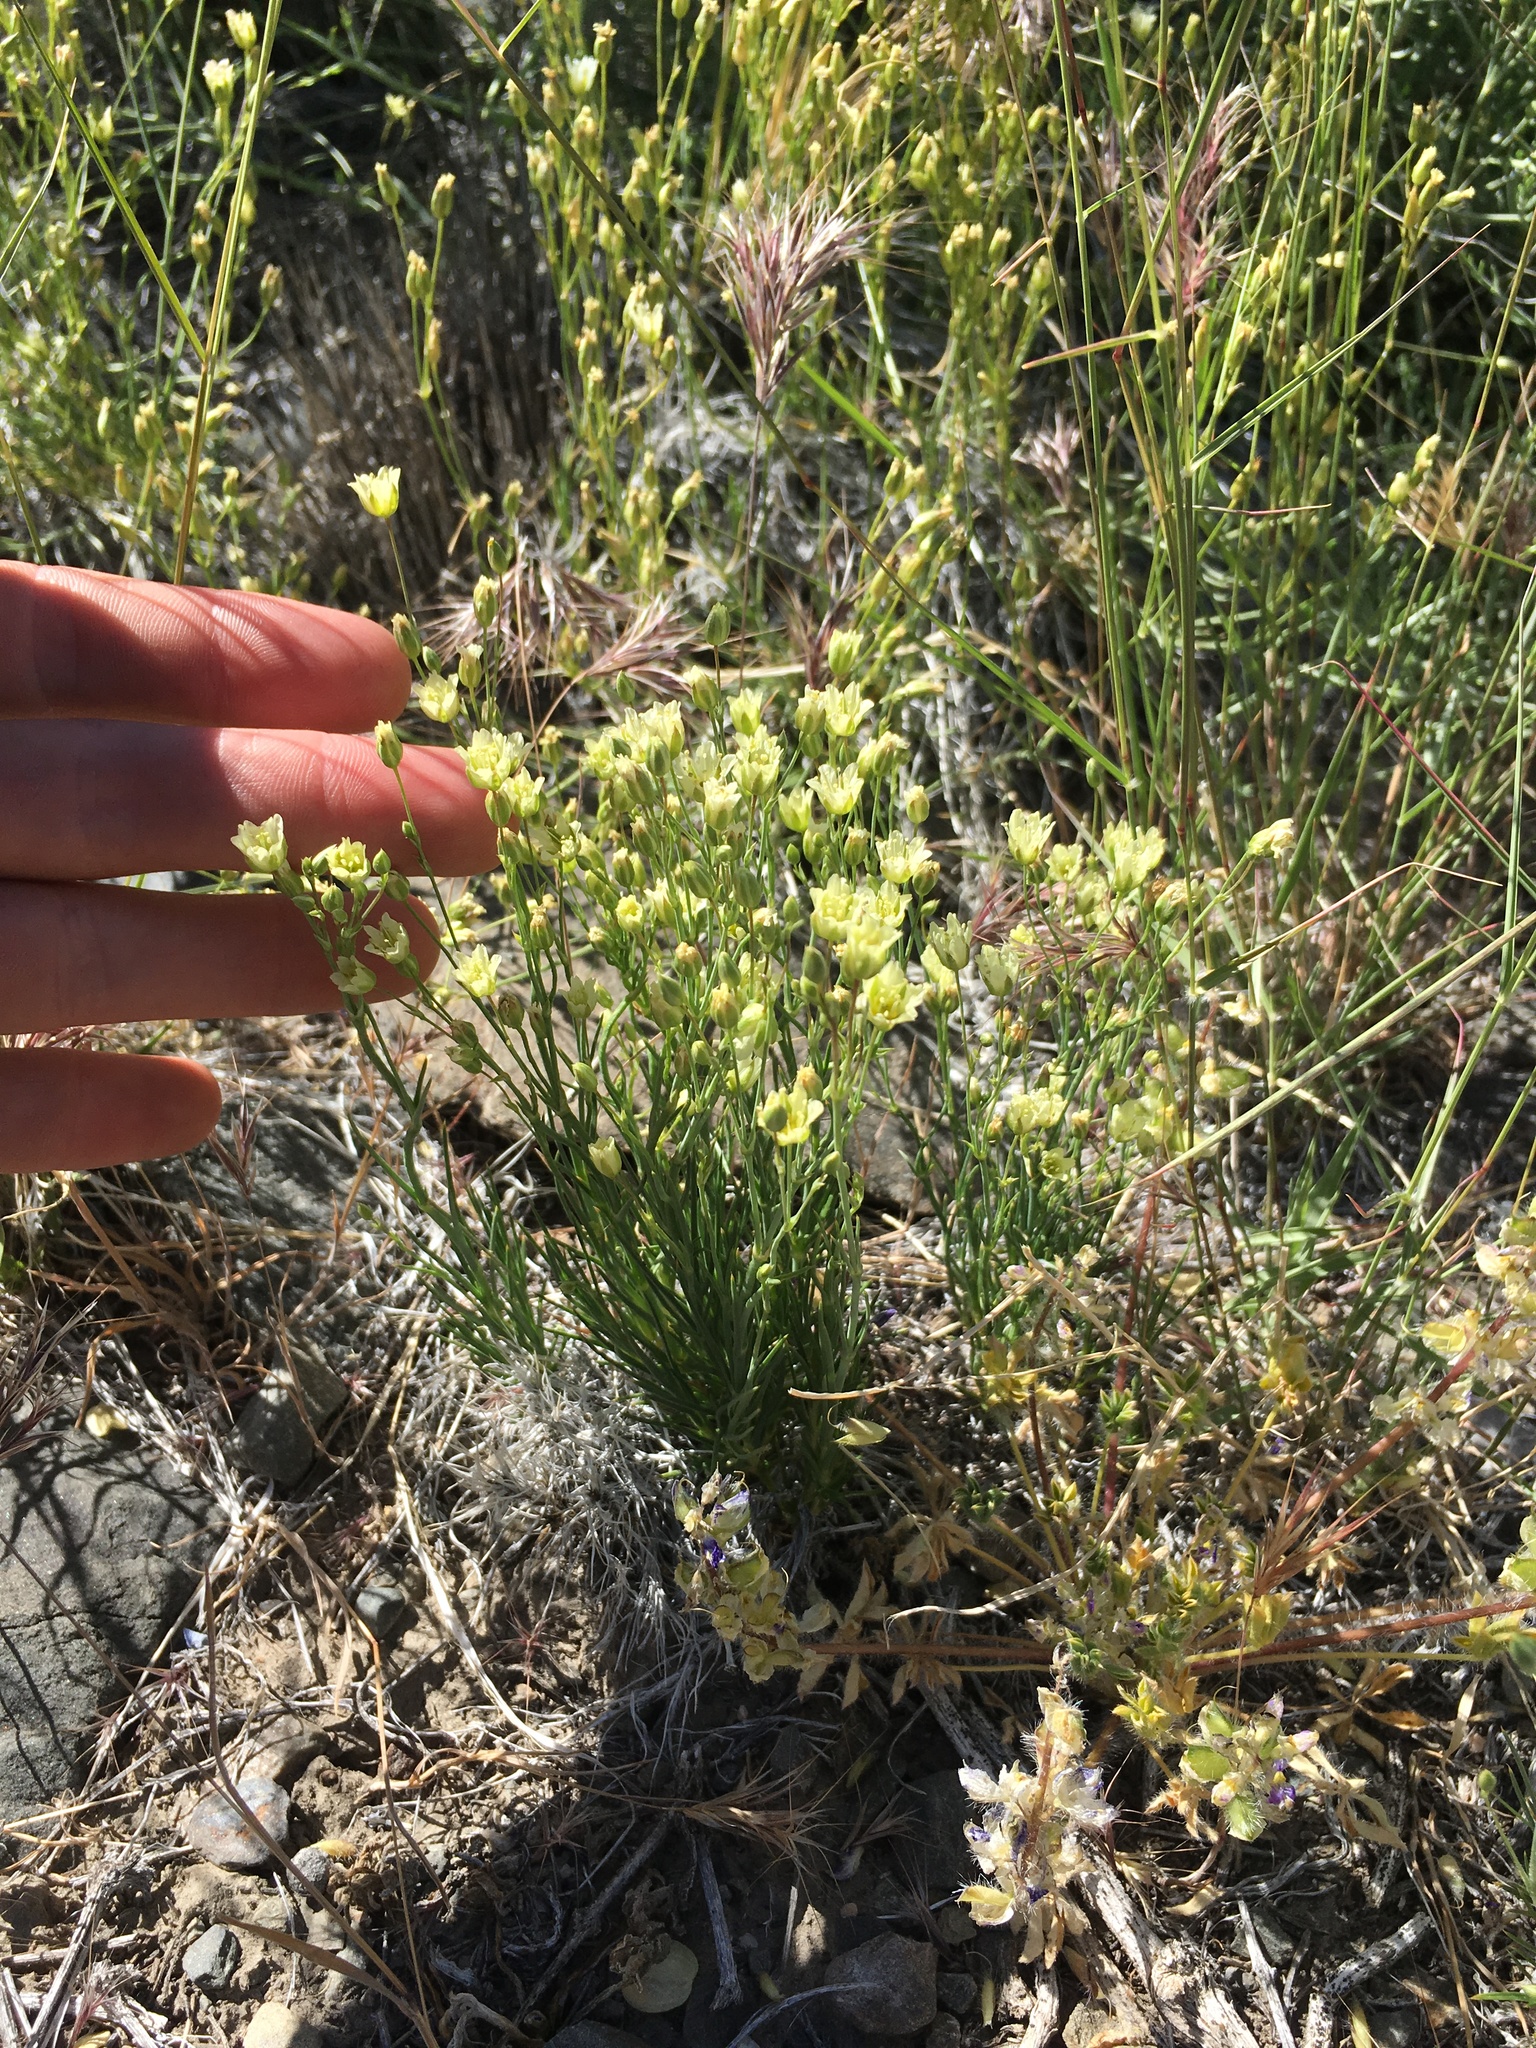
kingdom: Plantae
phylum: Tracheophyta
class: Magnoliopsida
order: Caryophyllales
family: Caryophyllaceae
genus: Eremogone
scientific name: Eremogone macradenia
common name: Mohave sandwort
